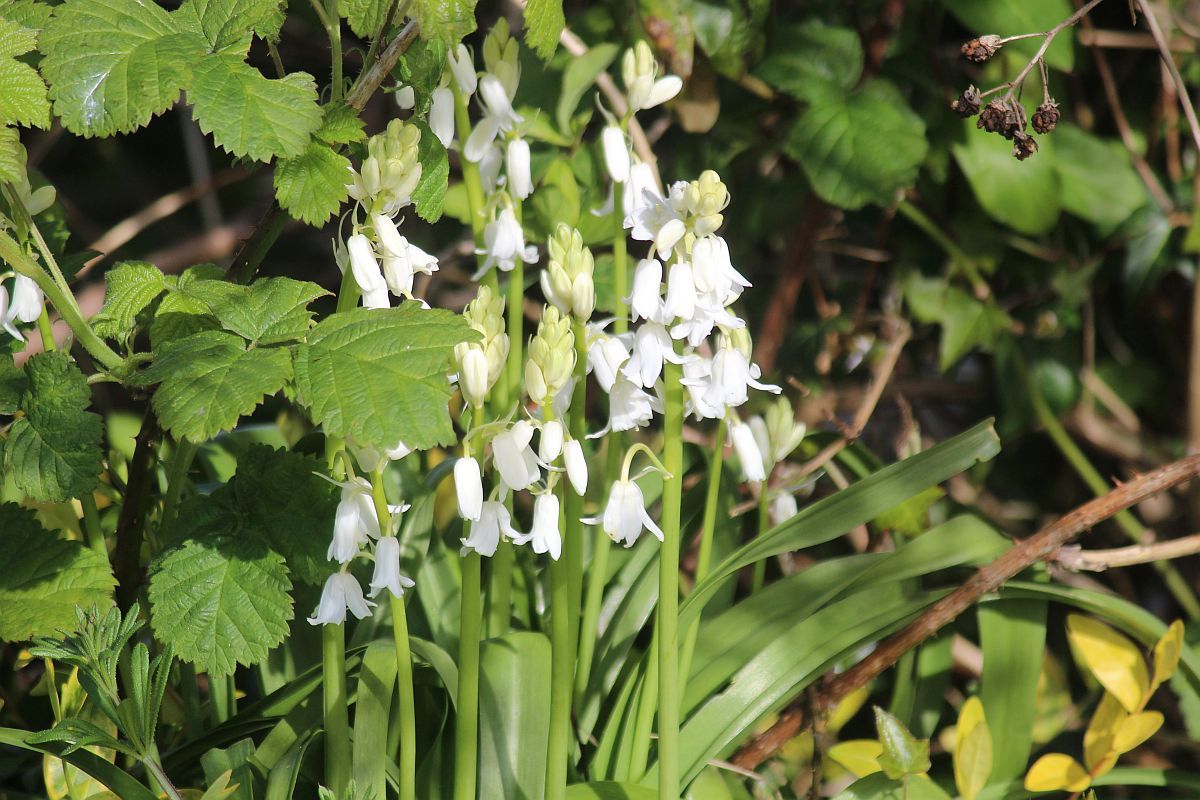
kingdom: Plantae
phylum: Tracheophyta
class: Liliopsida
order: Asparagales
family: Asparagaceae
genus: Hyacinthoides
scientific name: Hyacinthoides massartiana
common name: Hyacinthoides
